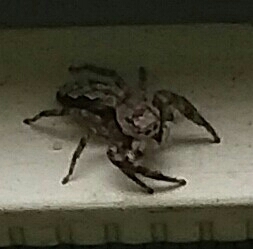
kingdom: Animalia
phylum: Arthropoda
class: Arachnida
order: Araneae
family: Salticidae
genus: Platycryptus
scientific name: Platycryptus undatus
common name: Tan jumping spider
